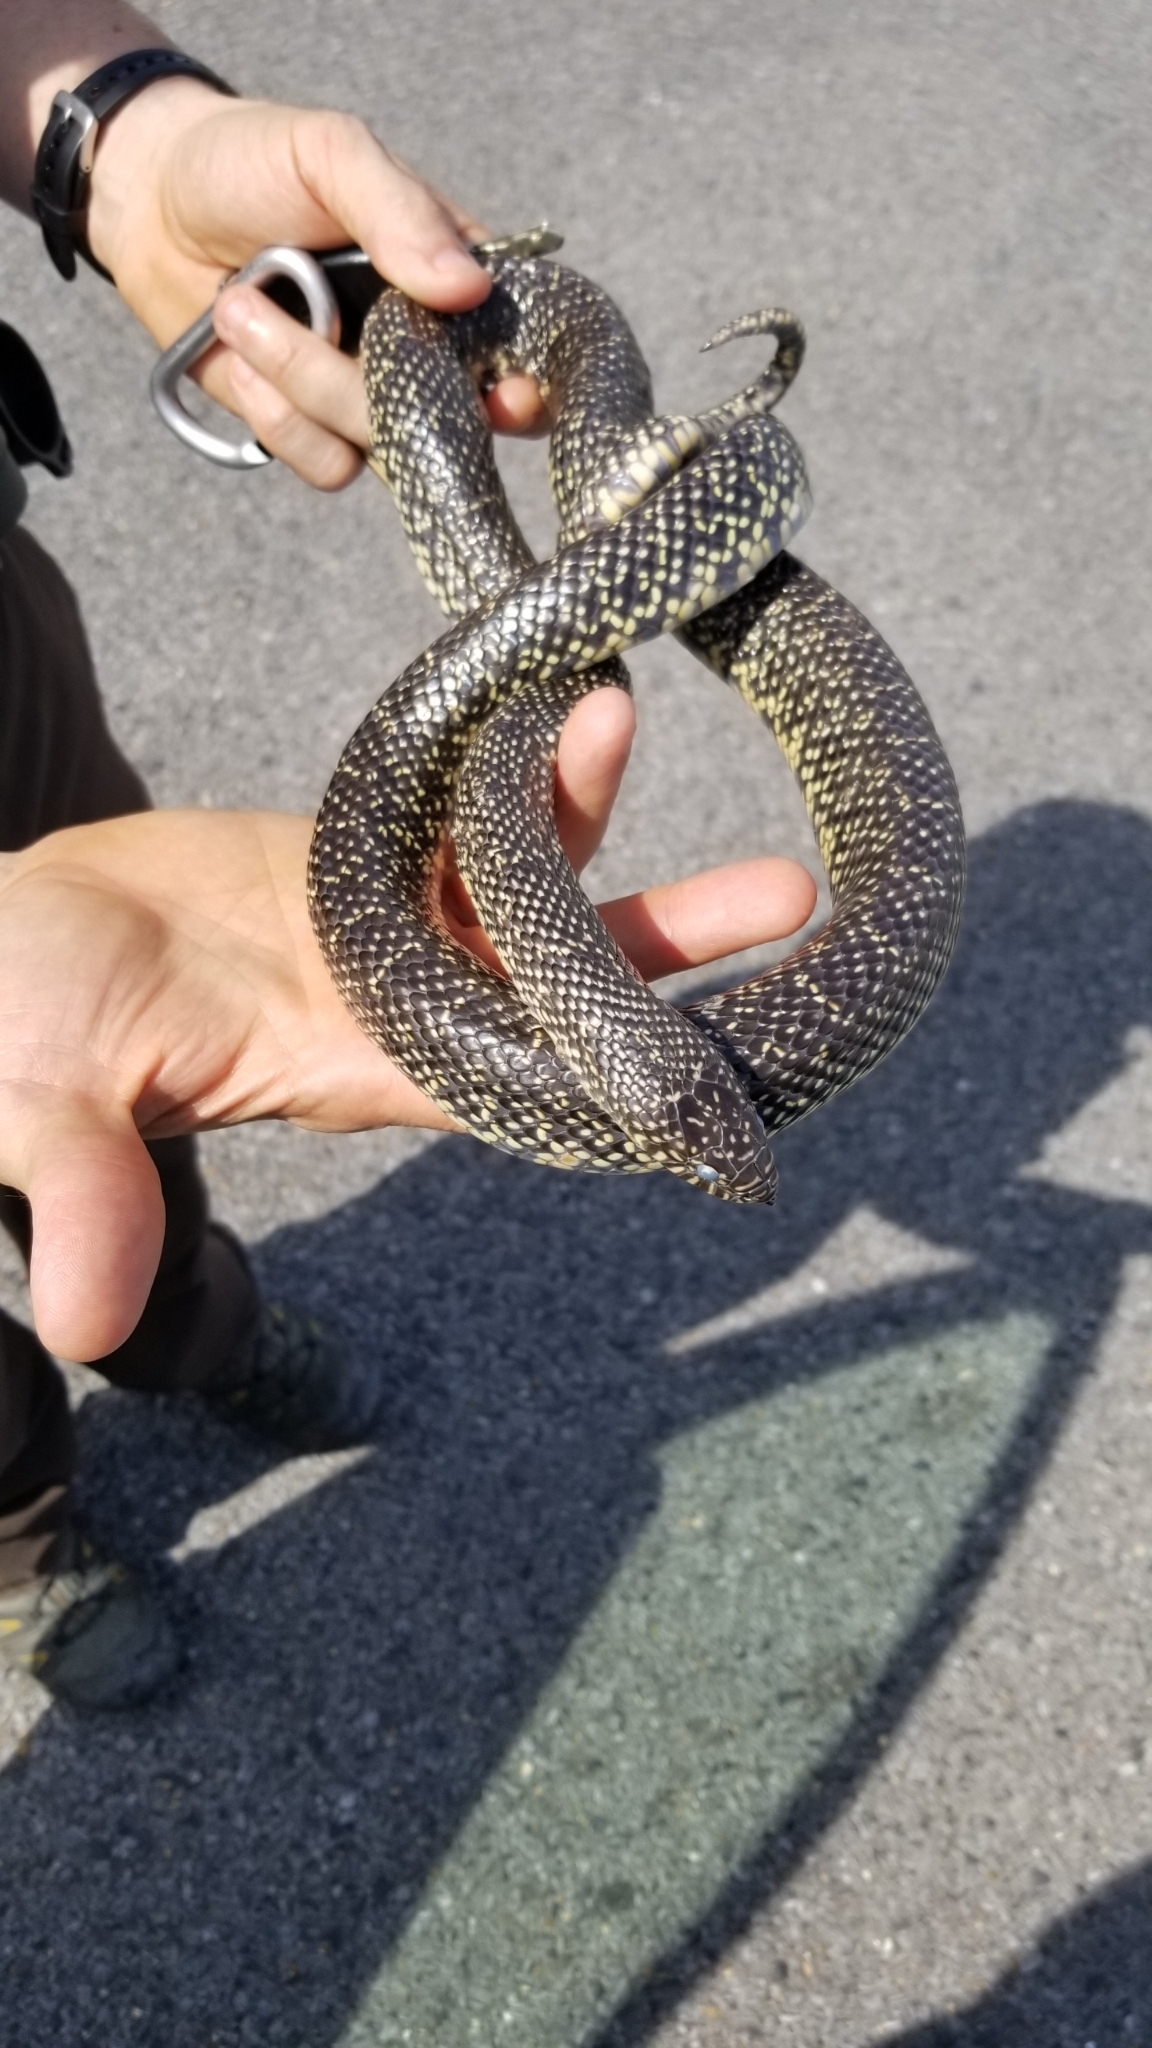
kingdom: Animalia
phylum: Chordata
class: Squamata
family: Colubridae
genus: Lampropeltis
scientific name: Lampropeltis holbrooki
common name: Speckled kingsnake
